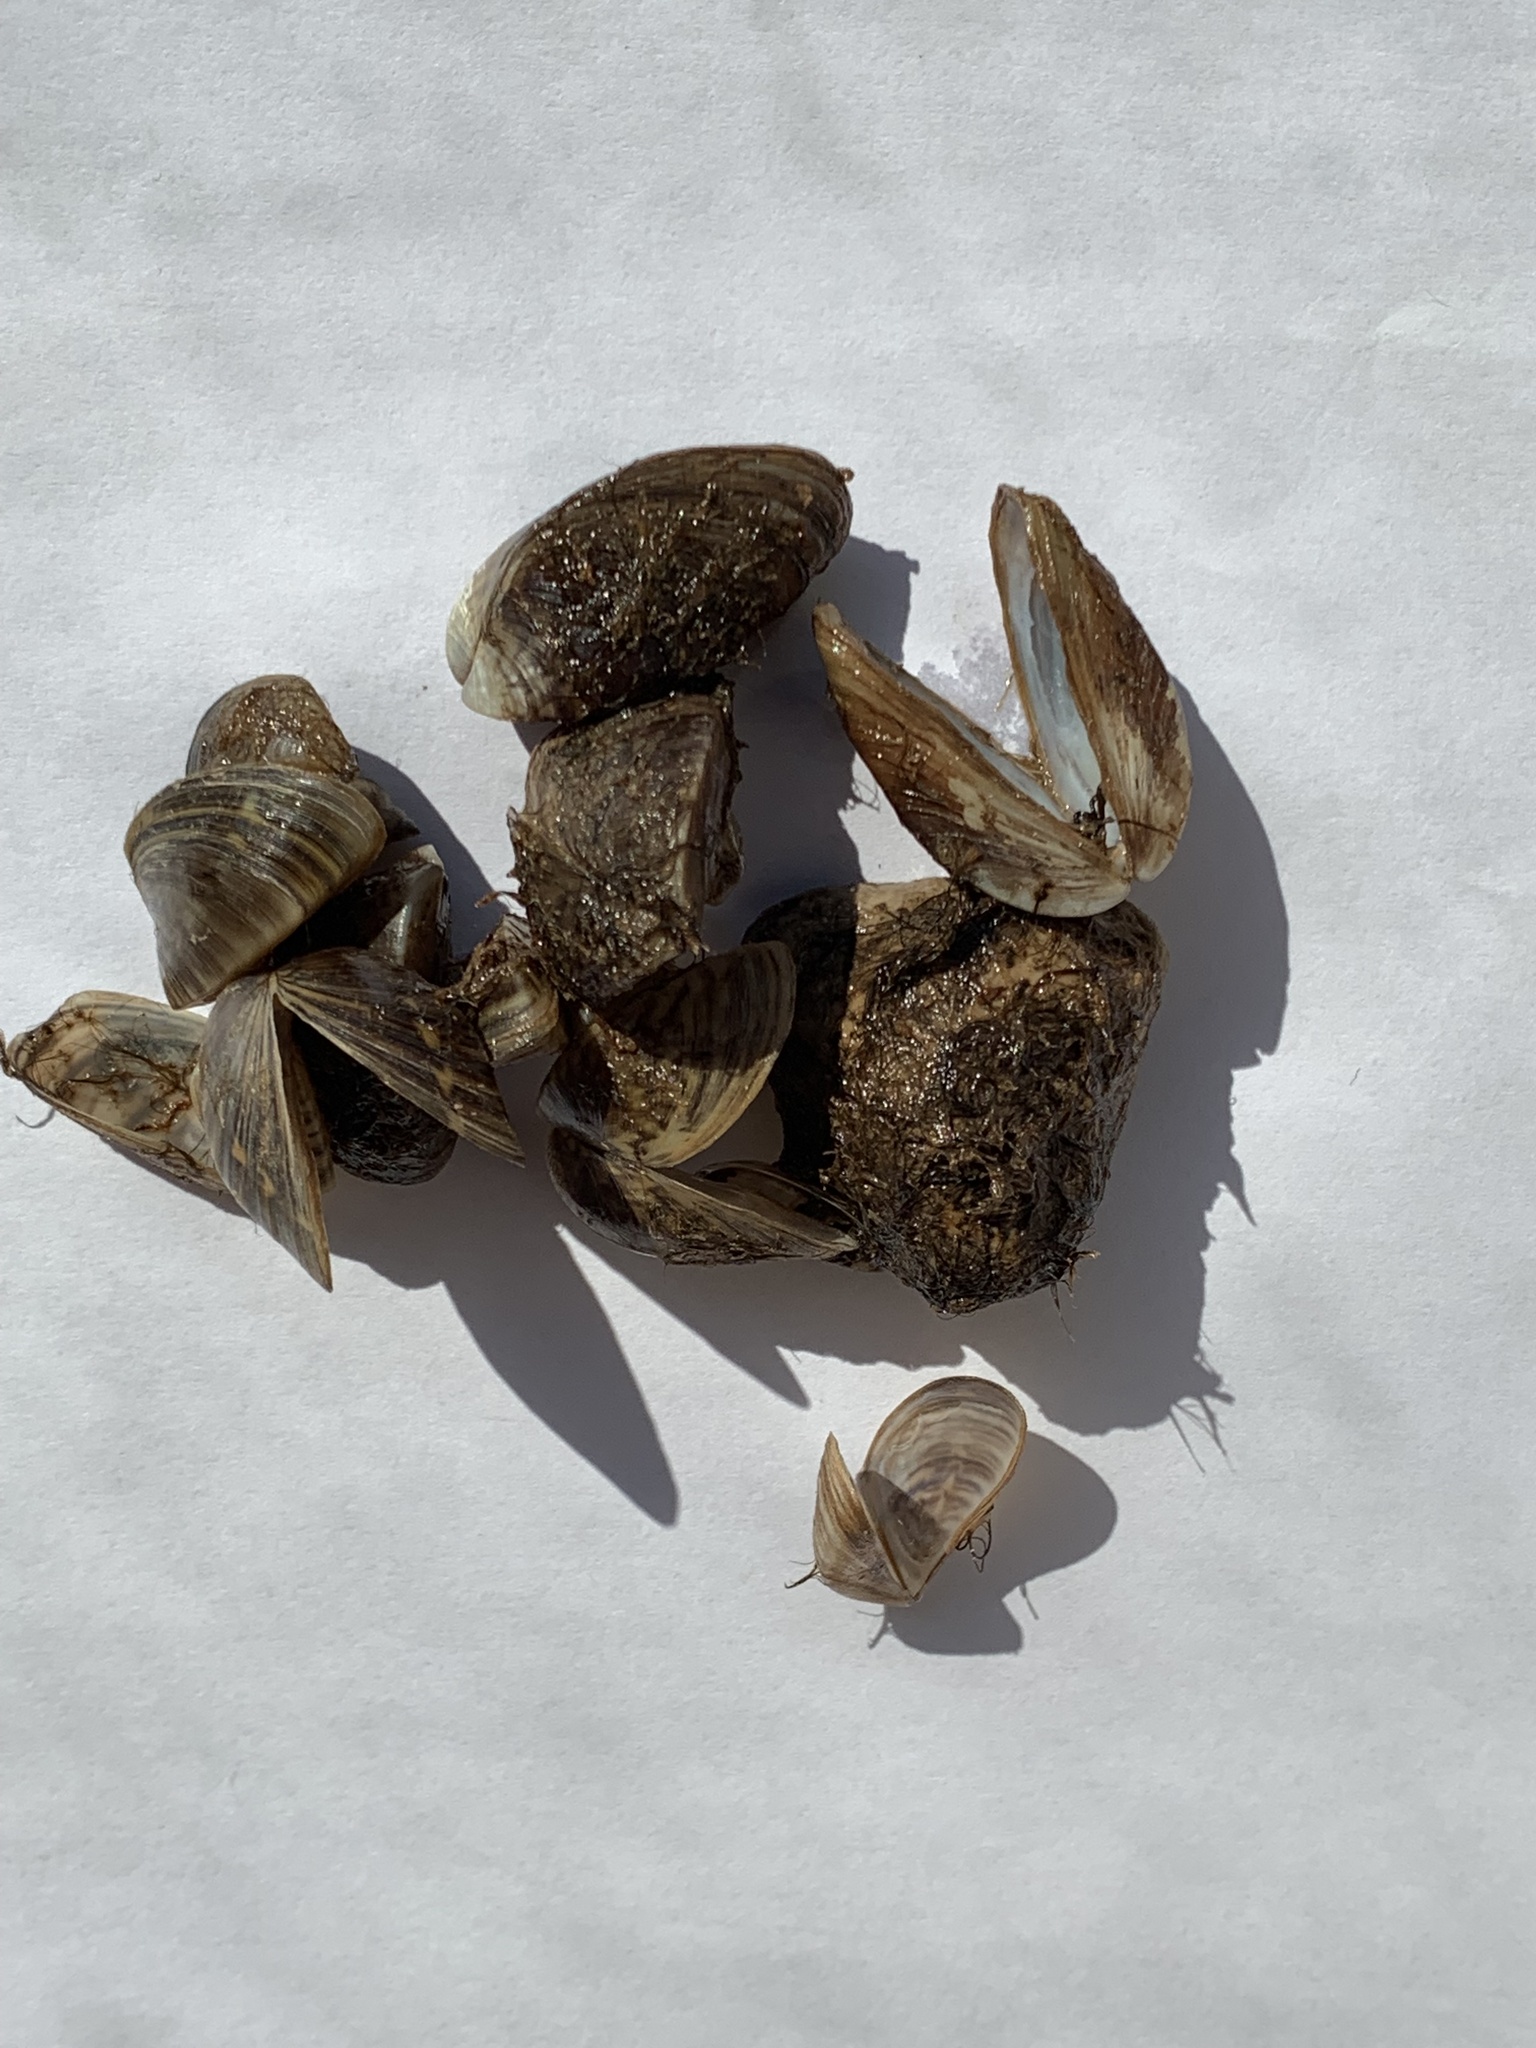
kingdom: Animalia
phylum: Mollusca
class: Bivalvia
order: Myida
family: Dreissenidae
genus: Dreissena
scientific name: Dreissena polymorpha
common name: Zebra mussel
